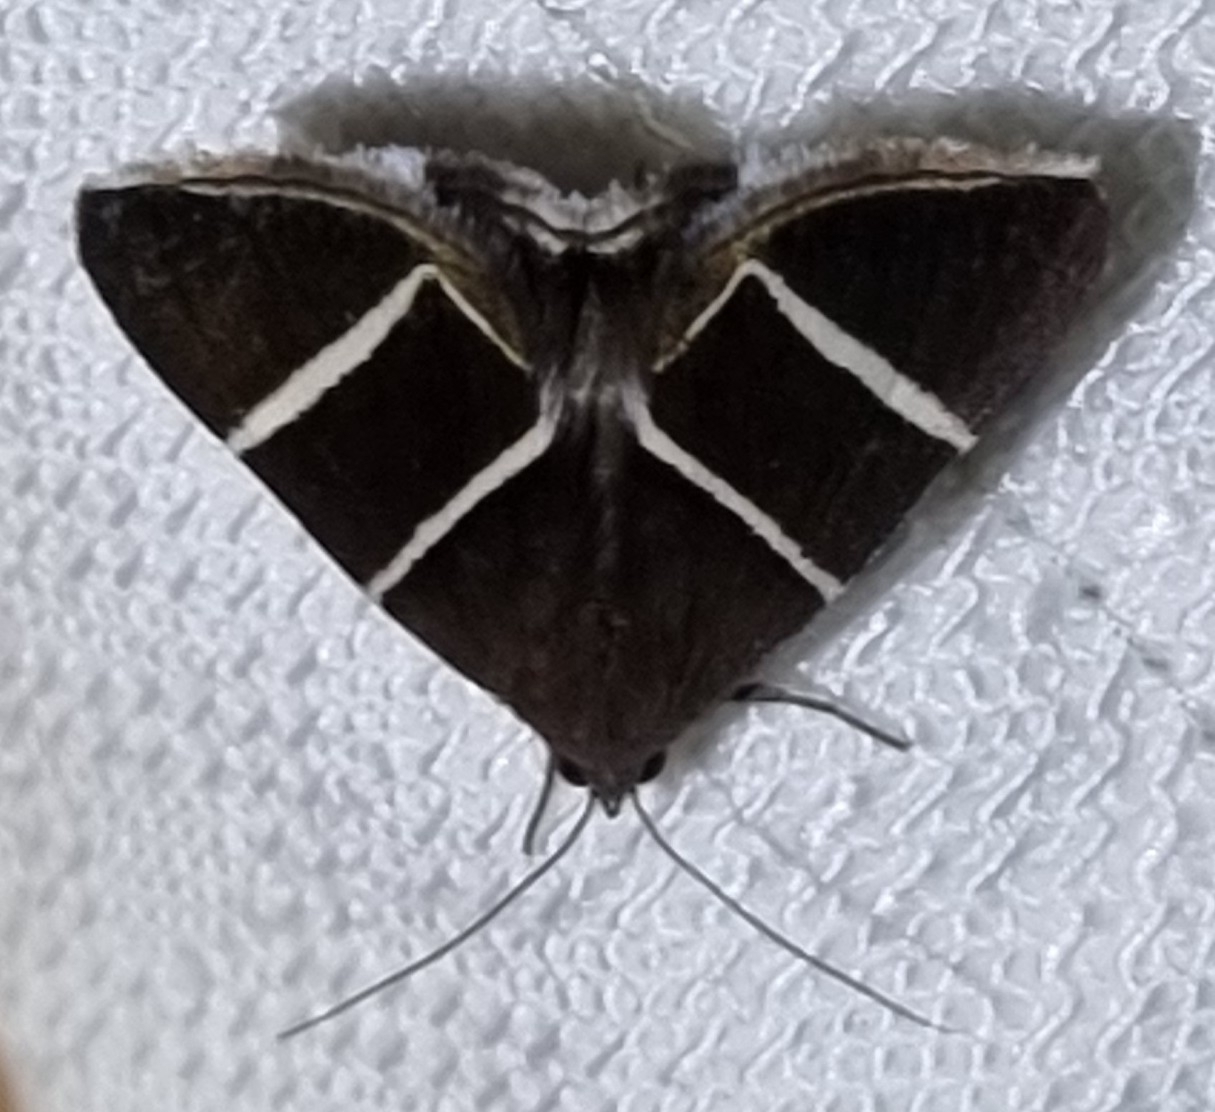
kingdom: Animalia
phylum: Arthropoda
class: Insecta
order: Lepidoptera
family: Erebidae
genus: Grammodes
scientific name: Grammodes justa
